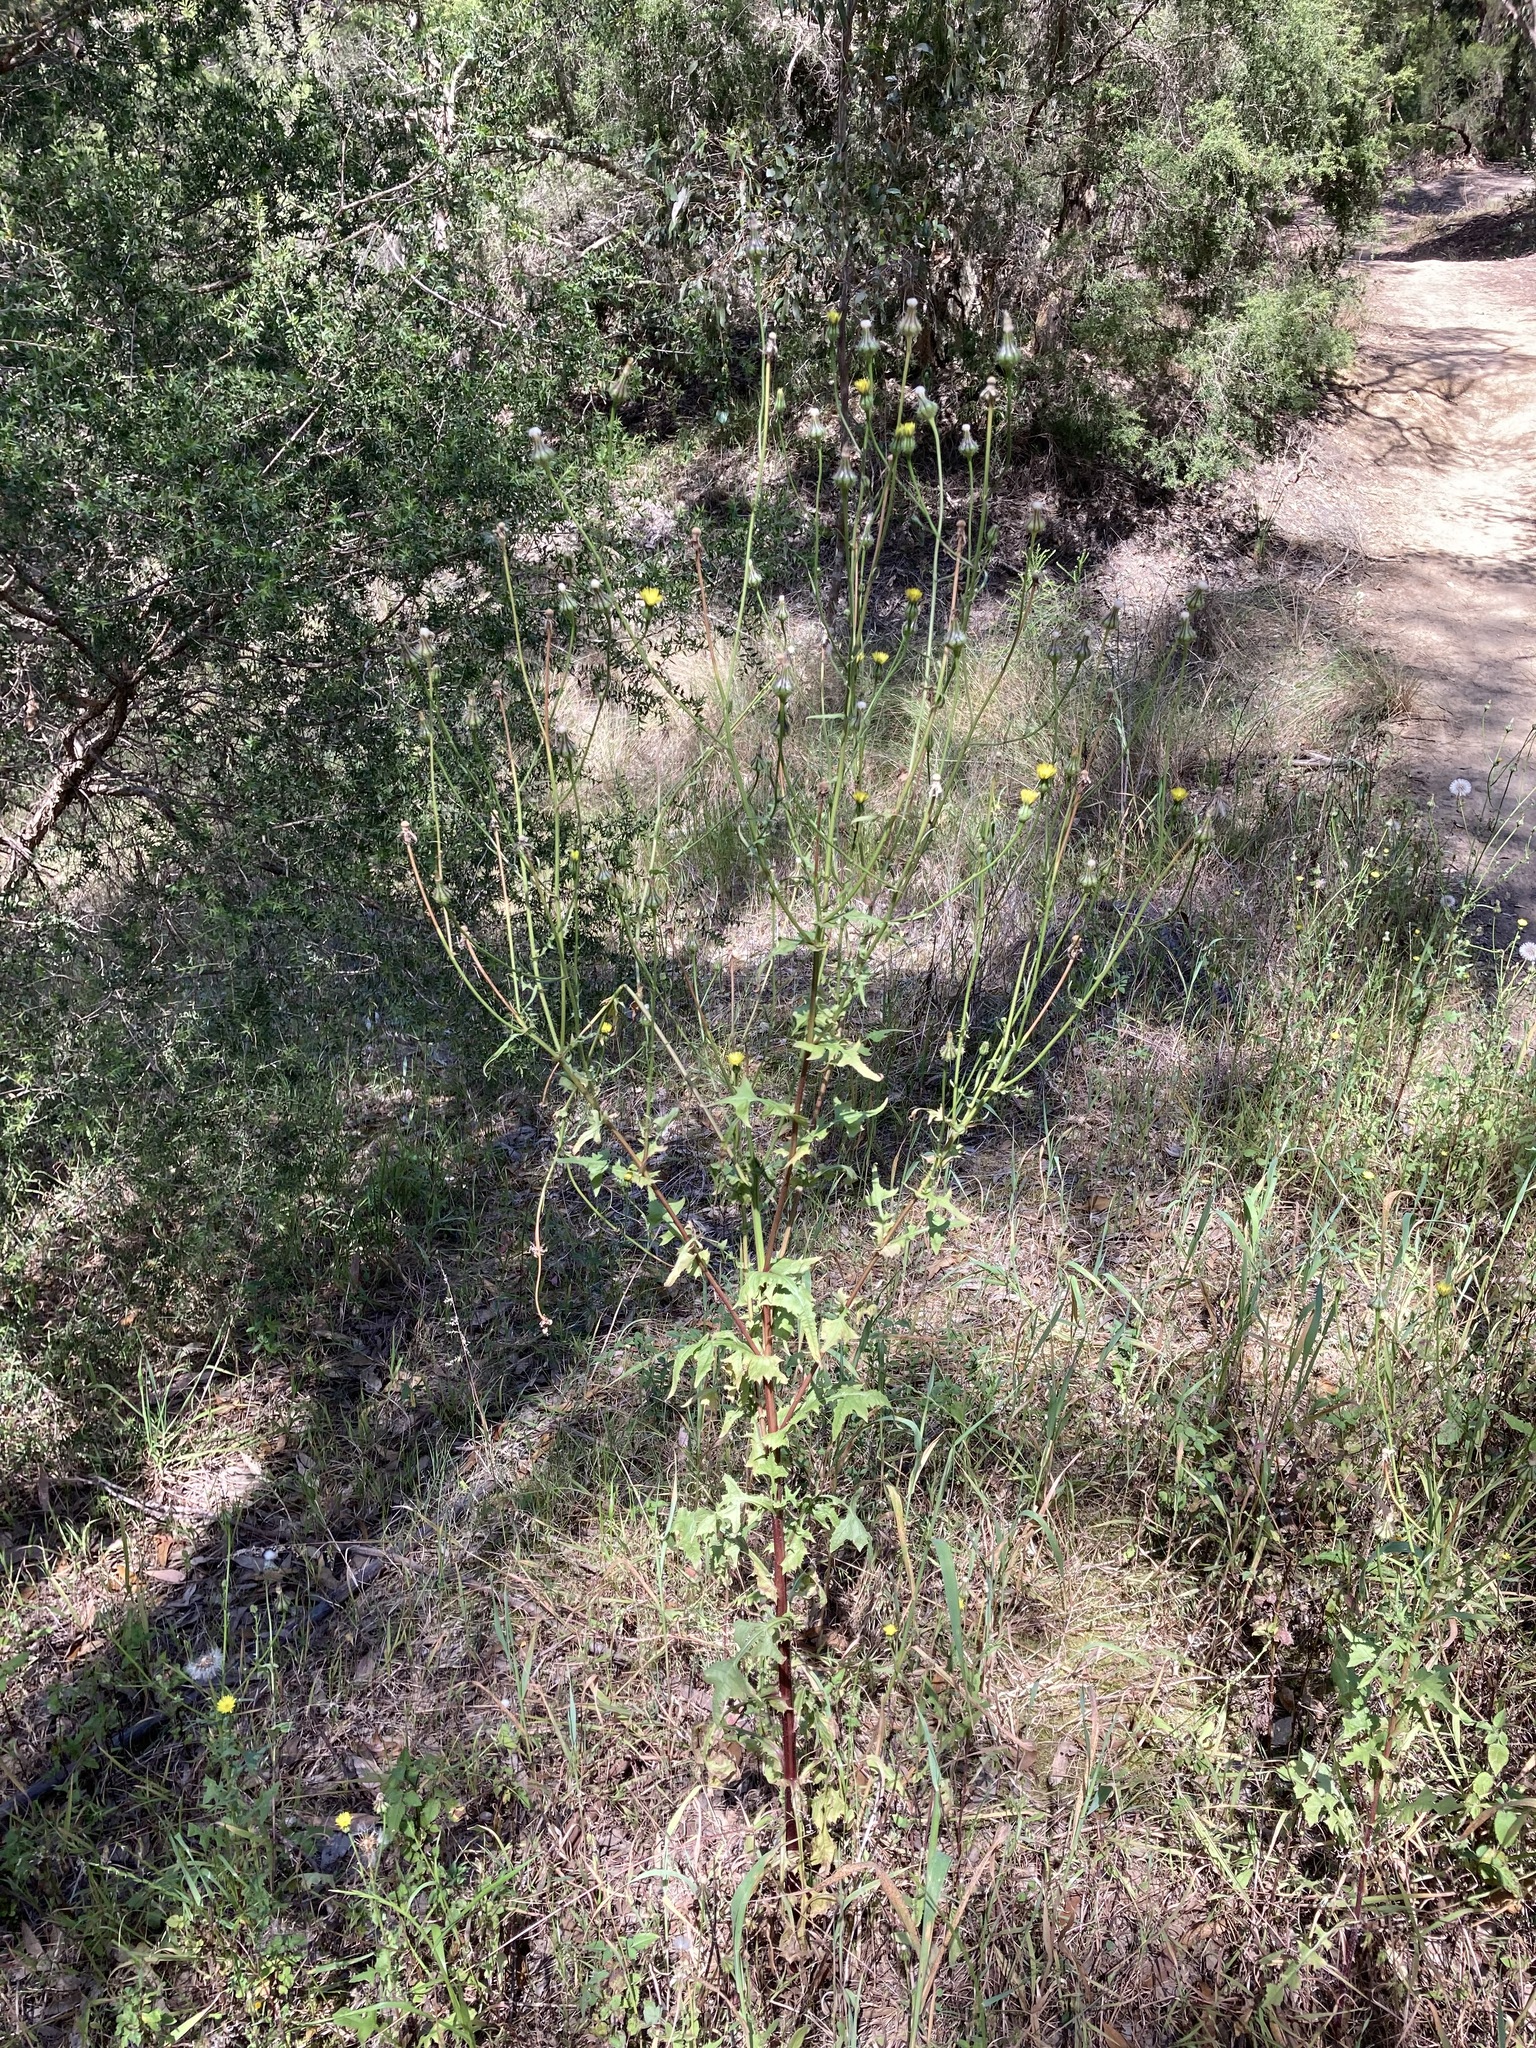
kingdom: Plantae
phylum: Tracheophyta
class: Magnoliopsida
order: Asterales
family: Asteraceae
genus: Urospermum
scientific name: Urospermum picroides
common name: False hawkbit
